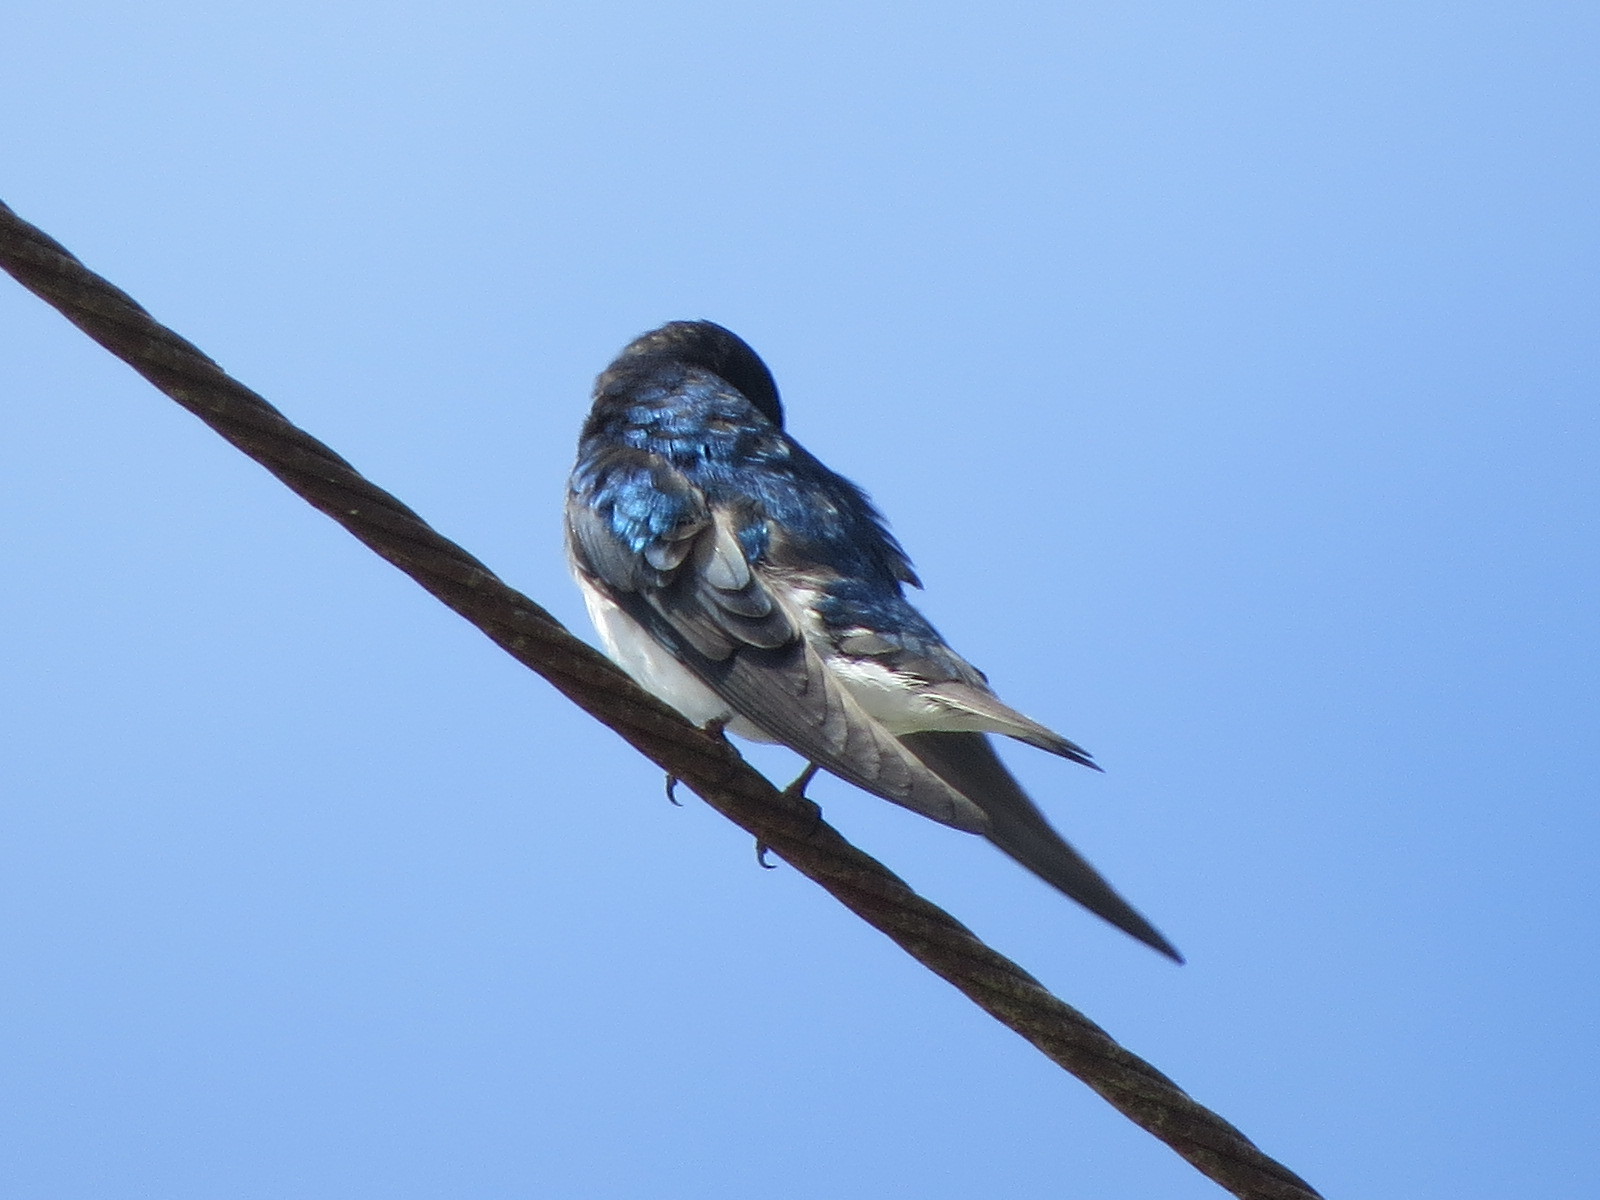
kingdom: Animalia
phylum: Chordata
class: Aves
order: Passeriformes
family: Hirundinidae
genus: Tachycineta
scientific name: Tachycineta bicolor
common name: Tree swallow
